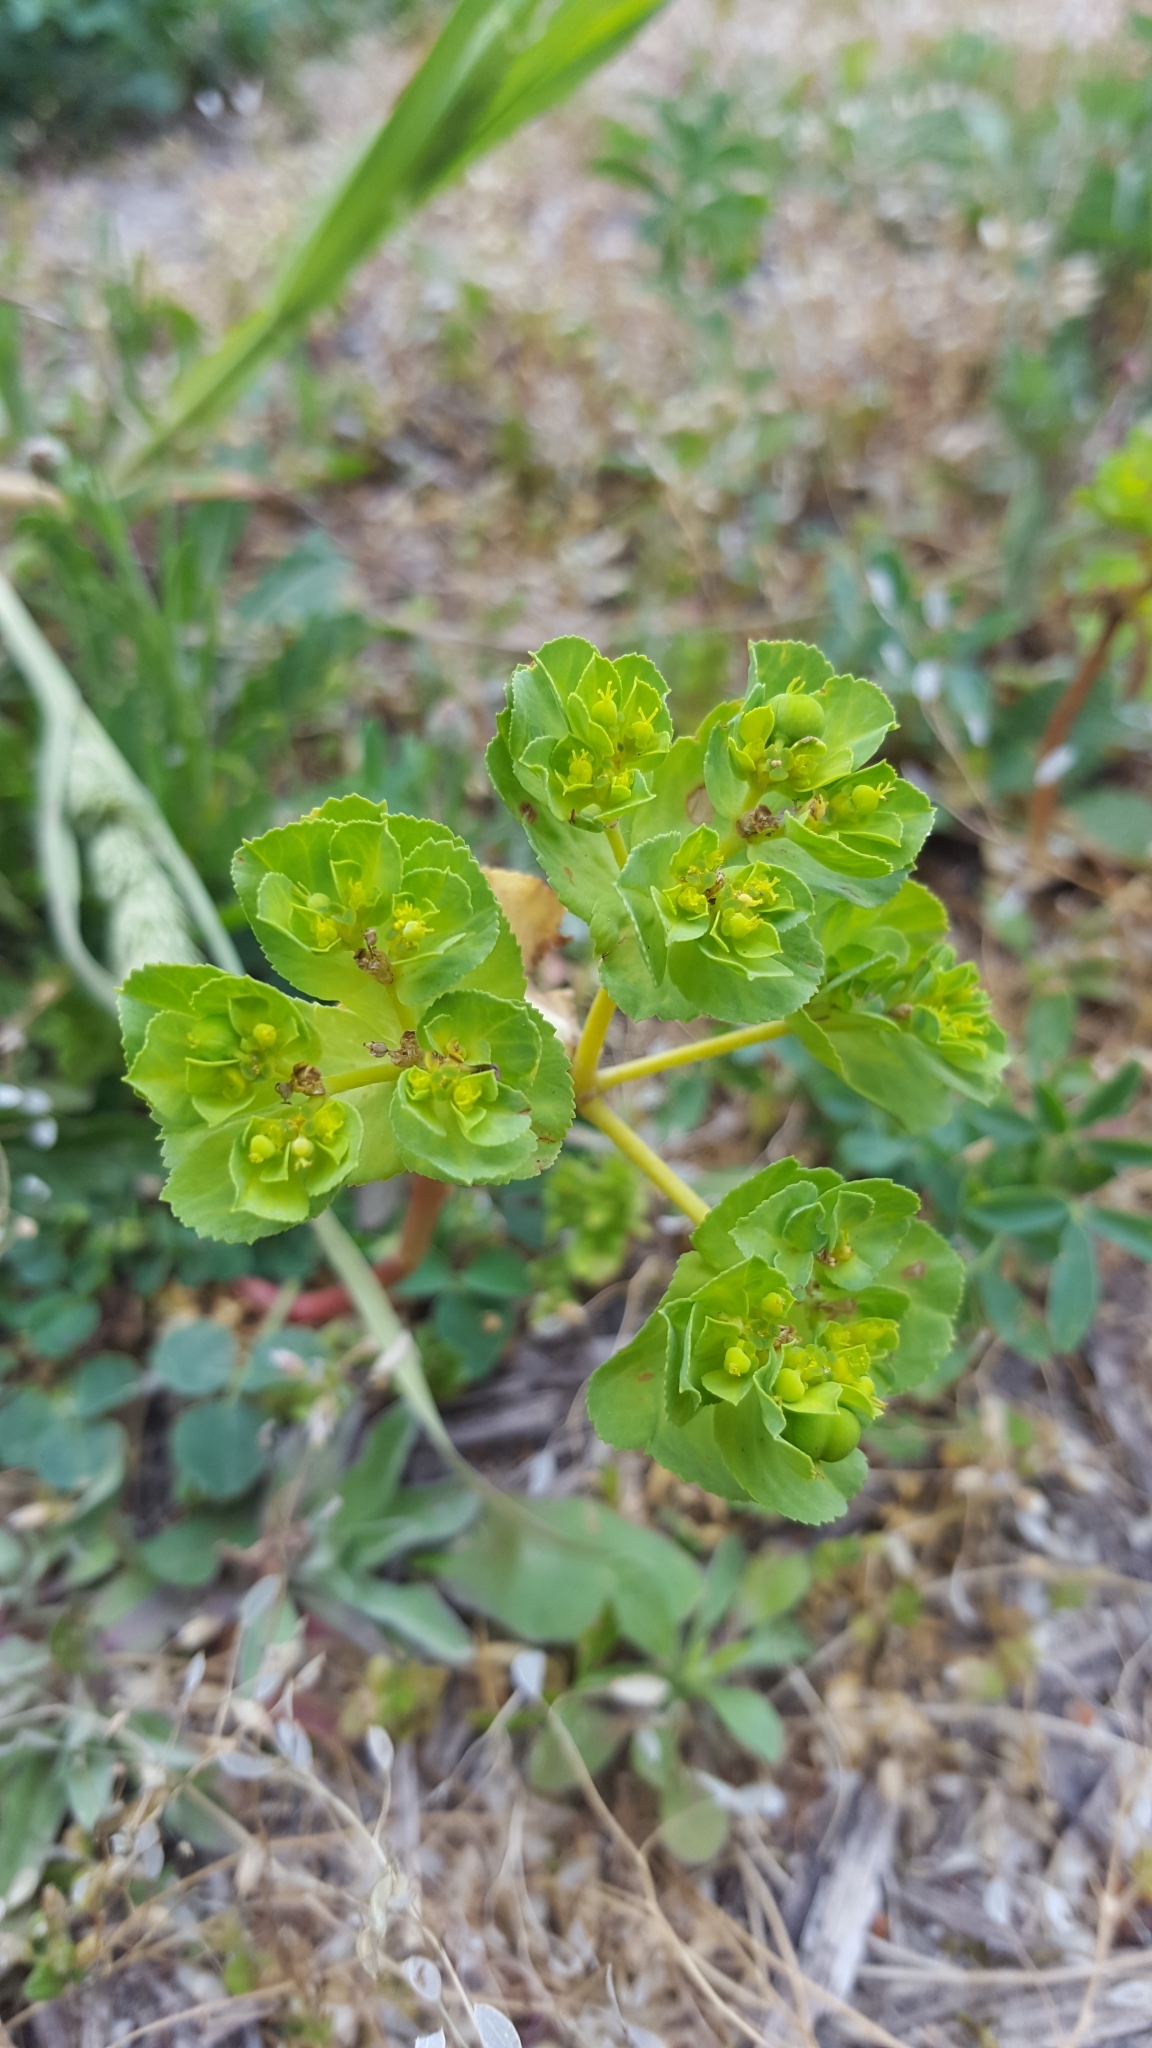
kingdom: Plantae
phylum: Tracheophyta
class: Magnoliopsida
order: Malpighiales
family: Euphorbiaceae
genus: Euphorbia
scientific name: Euphorbia helioscopia
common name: Sun spurge
